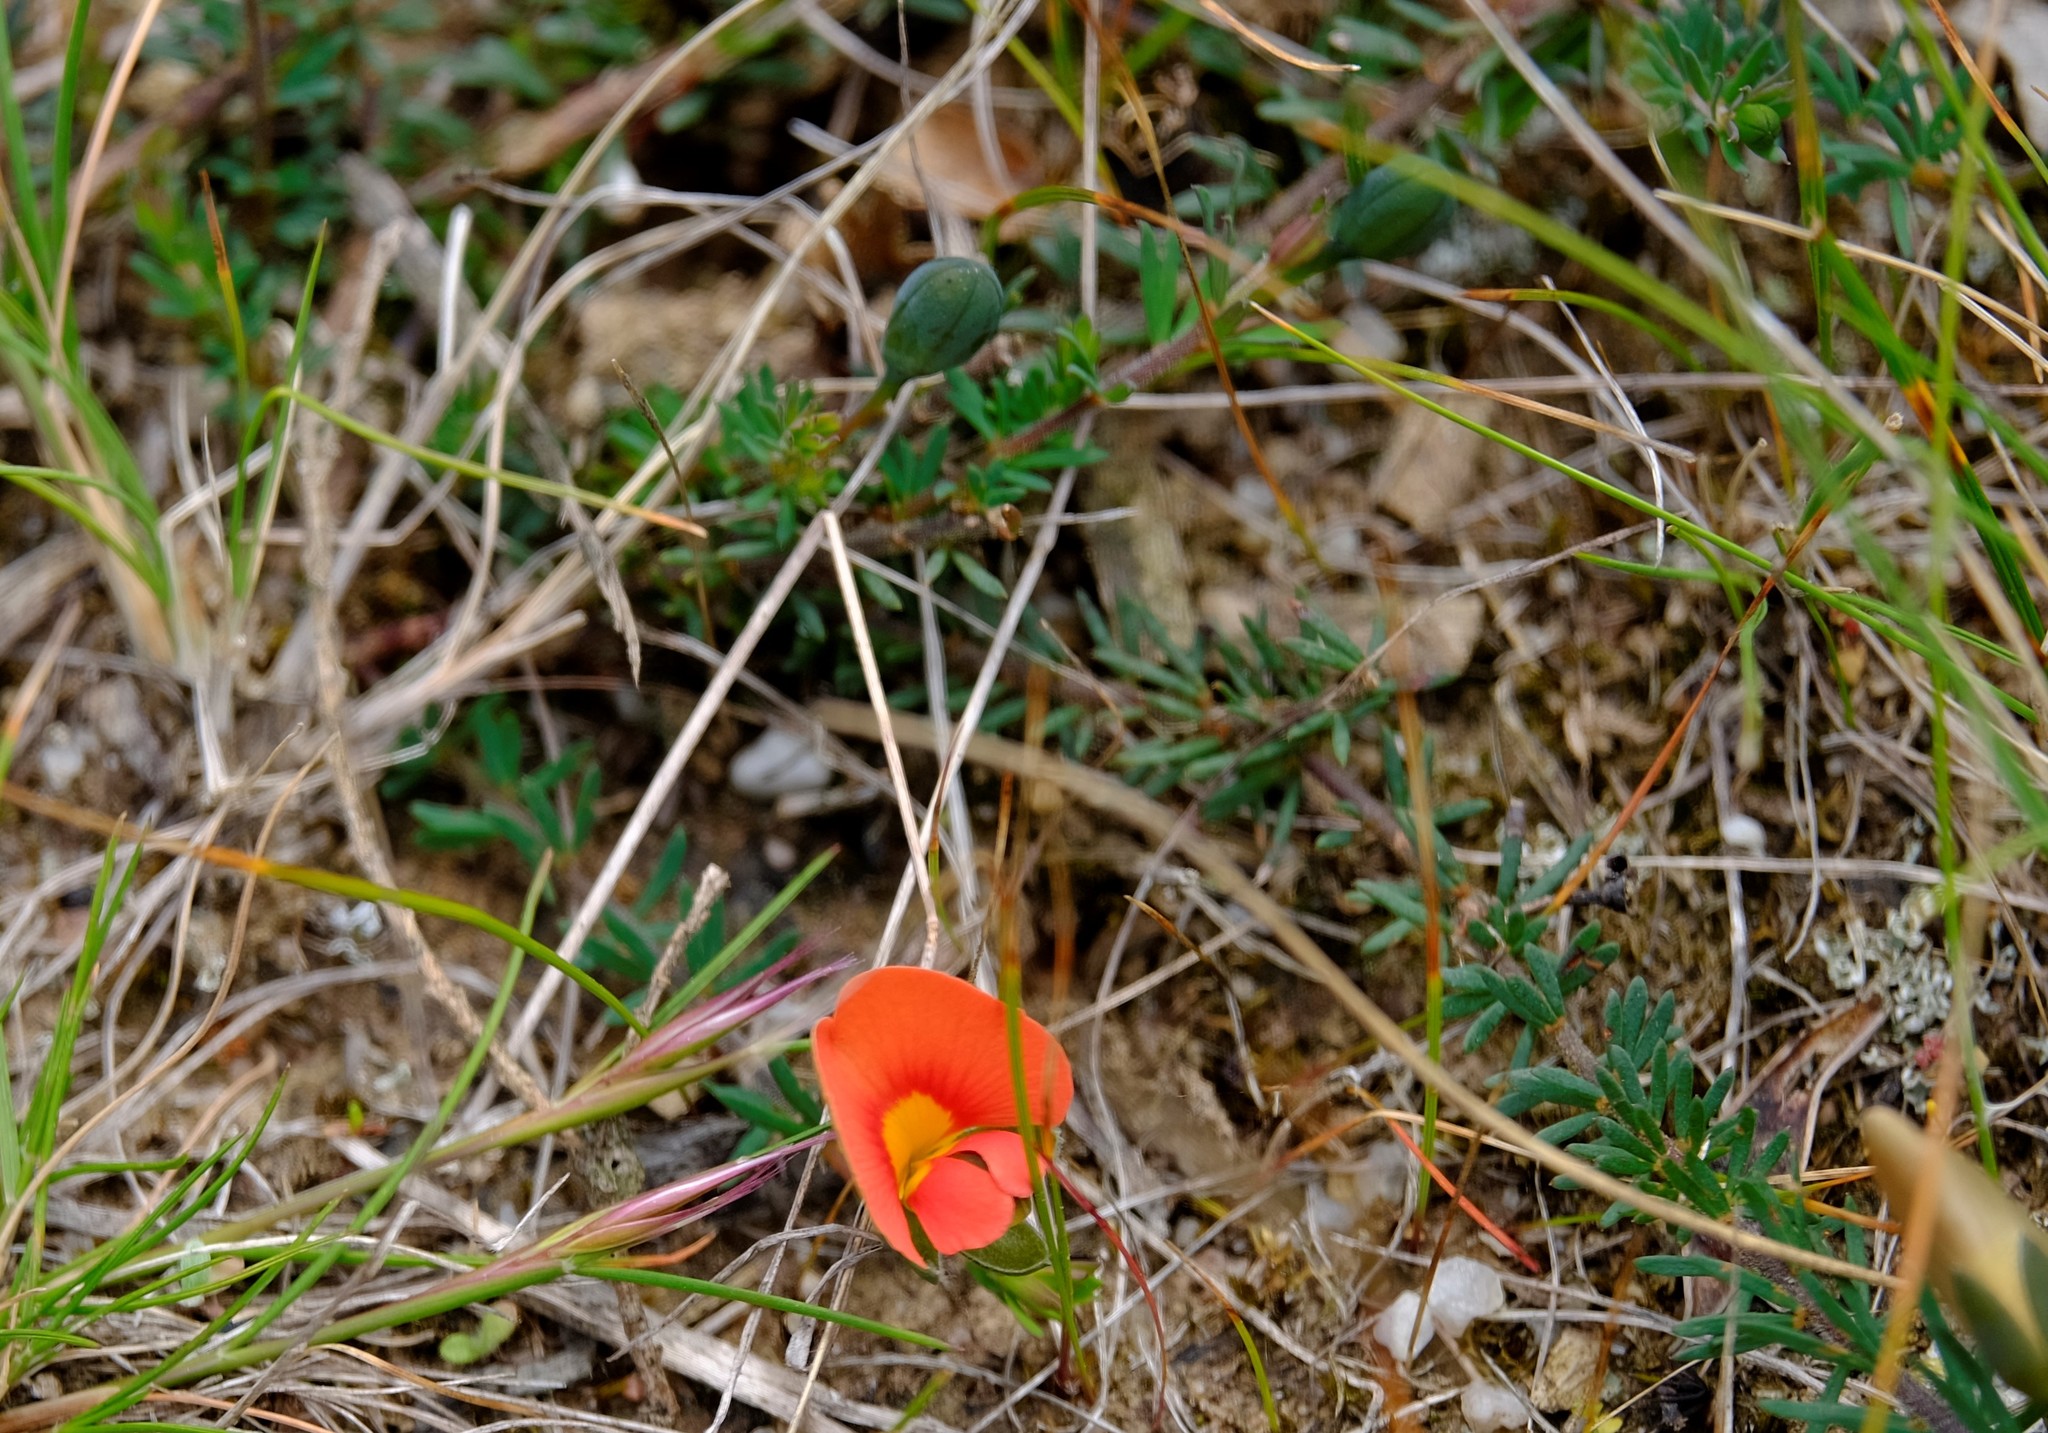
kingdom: Plantae
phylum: Tracheophyta
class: Magnoliopsida
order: Fabales
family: Fabaceae
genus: Gompholobium
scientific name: Gompholobium ecostatum
